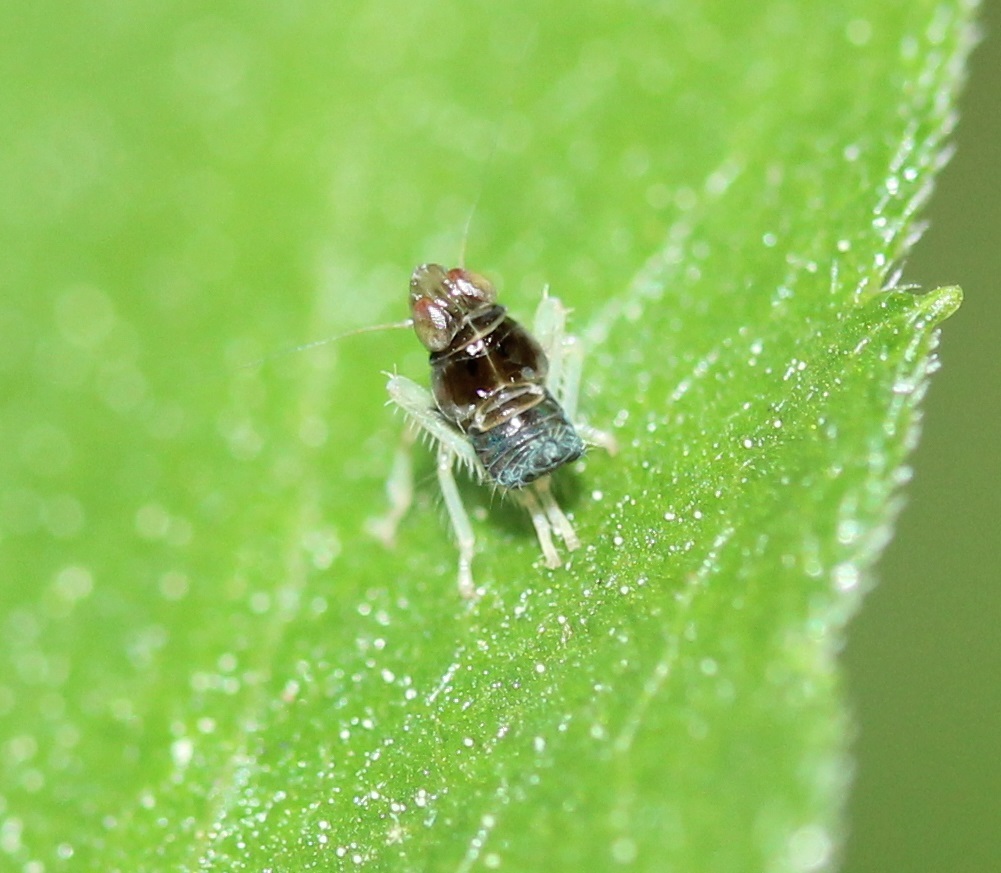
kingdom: Animalia
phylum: Arthropoda
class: Insecta
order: Hemiptera
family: Cicadellidae
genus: Jikradia
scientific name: Jikradia olitoria
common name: Coppery leafhopper
